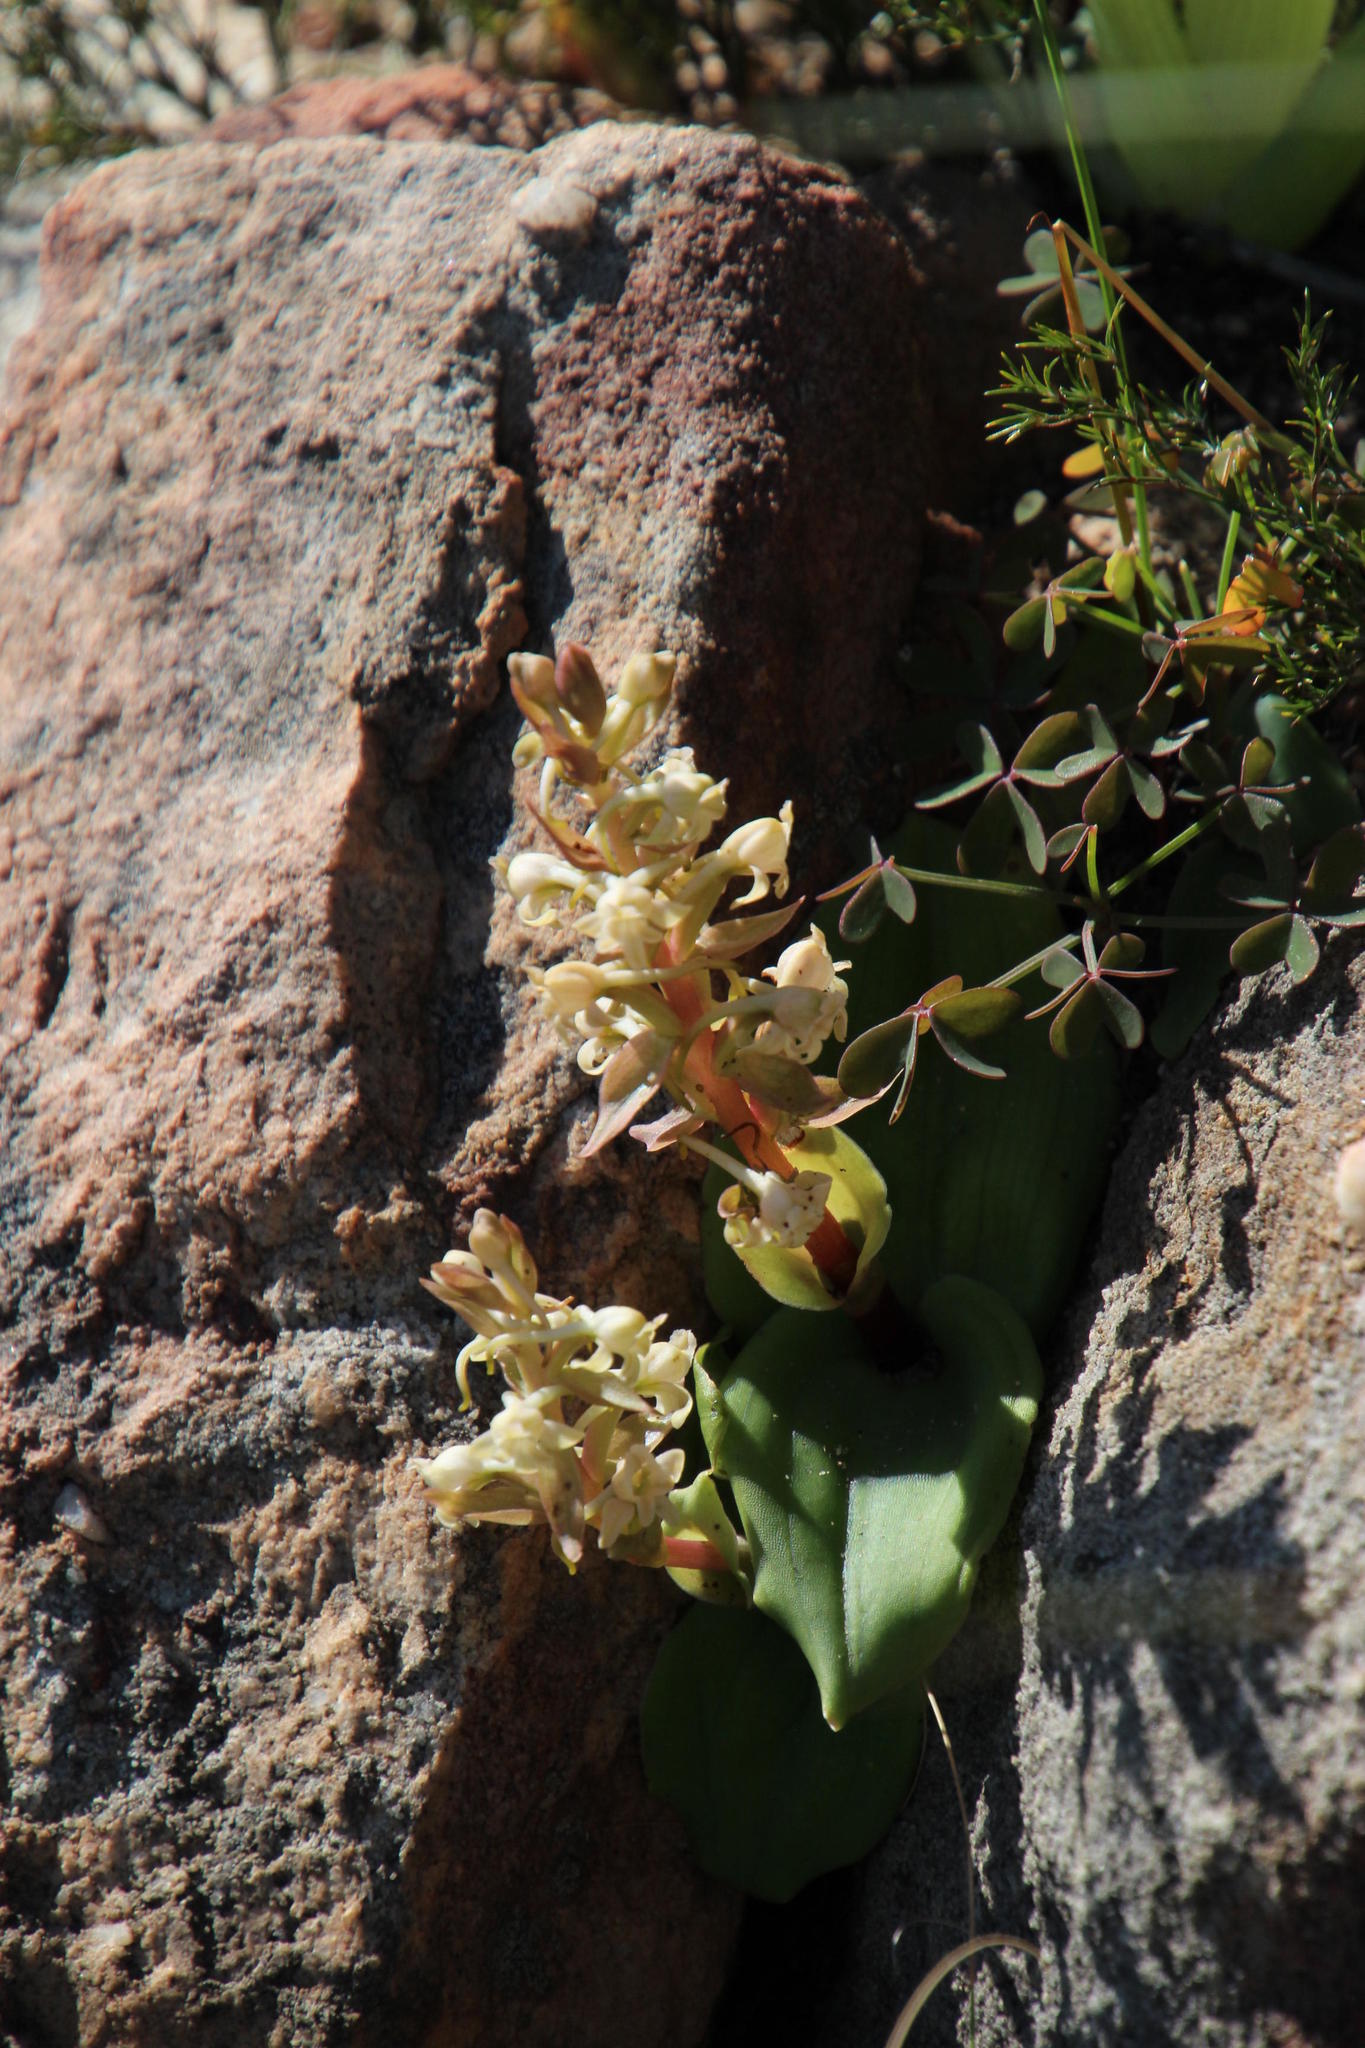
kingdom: Plantae
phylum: Tracheophyta
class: Liliopsida
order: Asparagales
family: Orchidaceae
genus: Satyrium
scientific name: Satyrium humile
